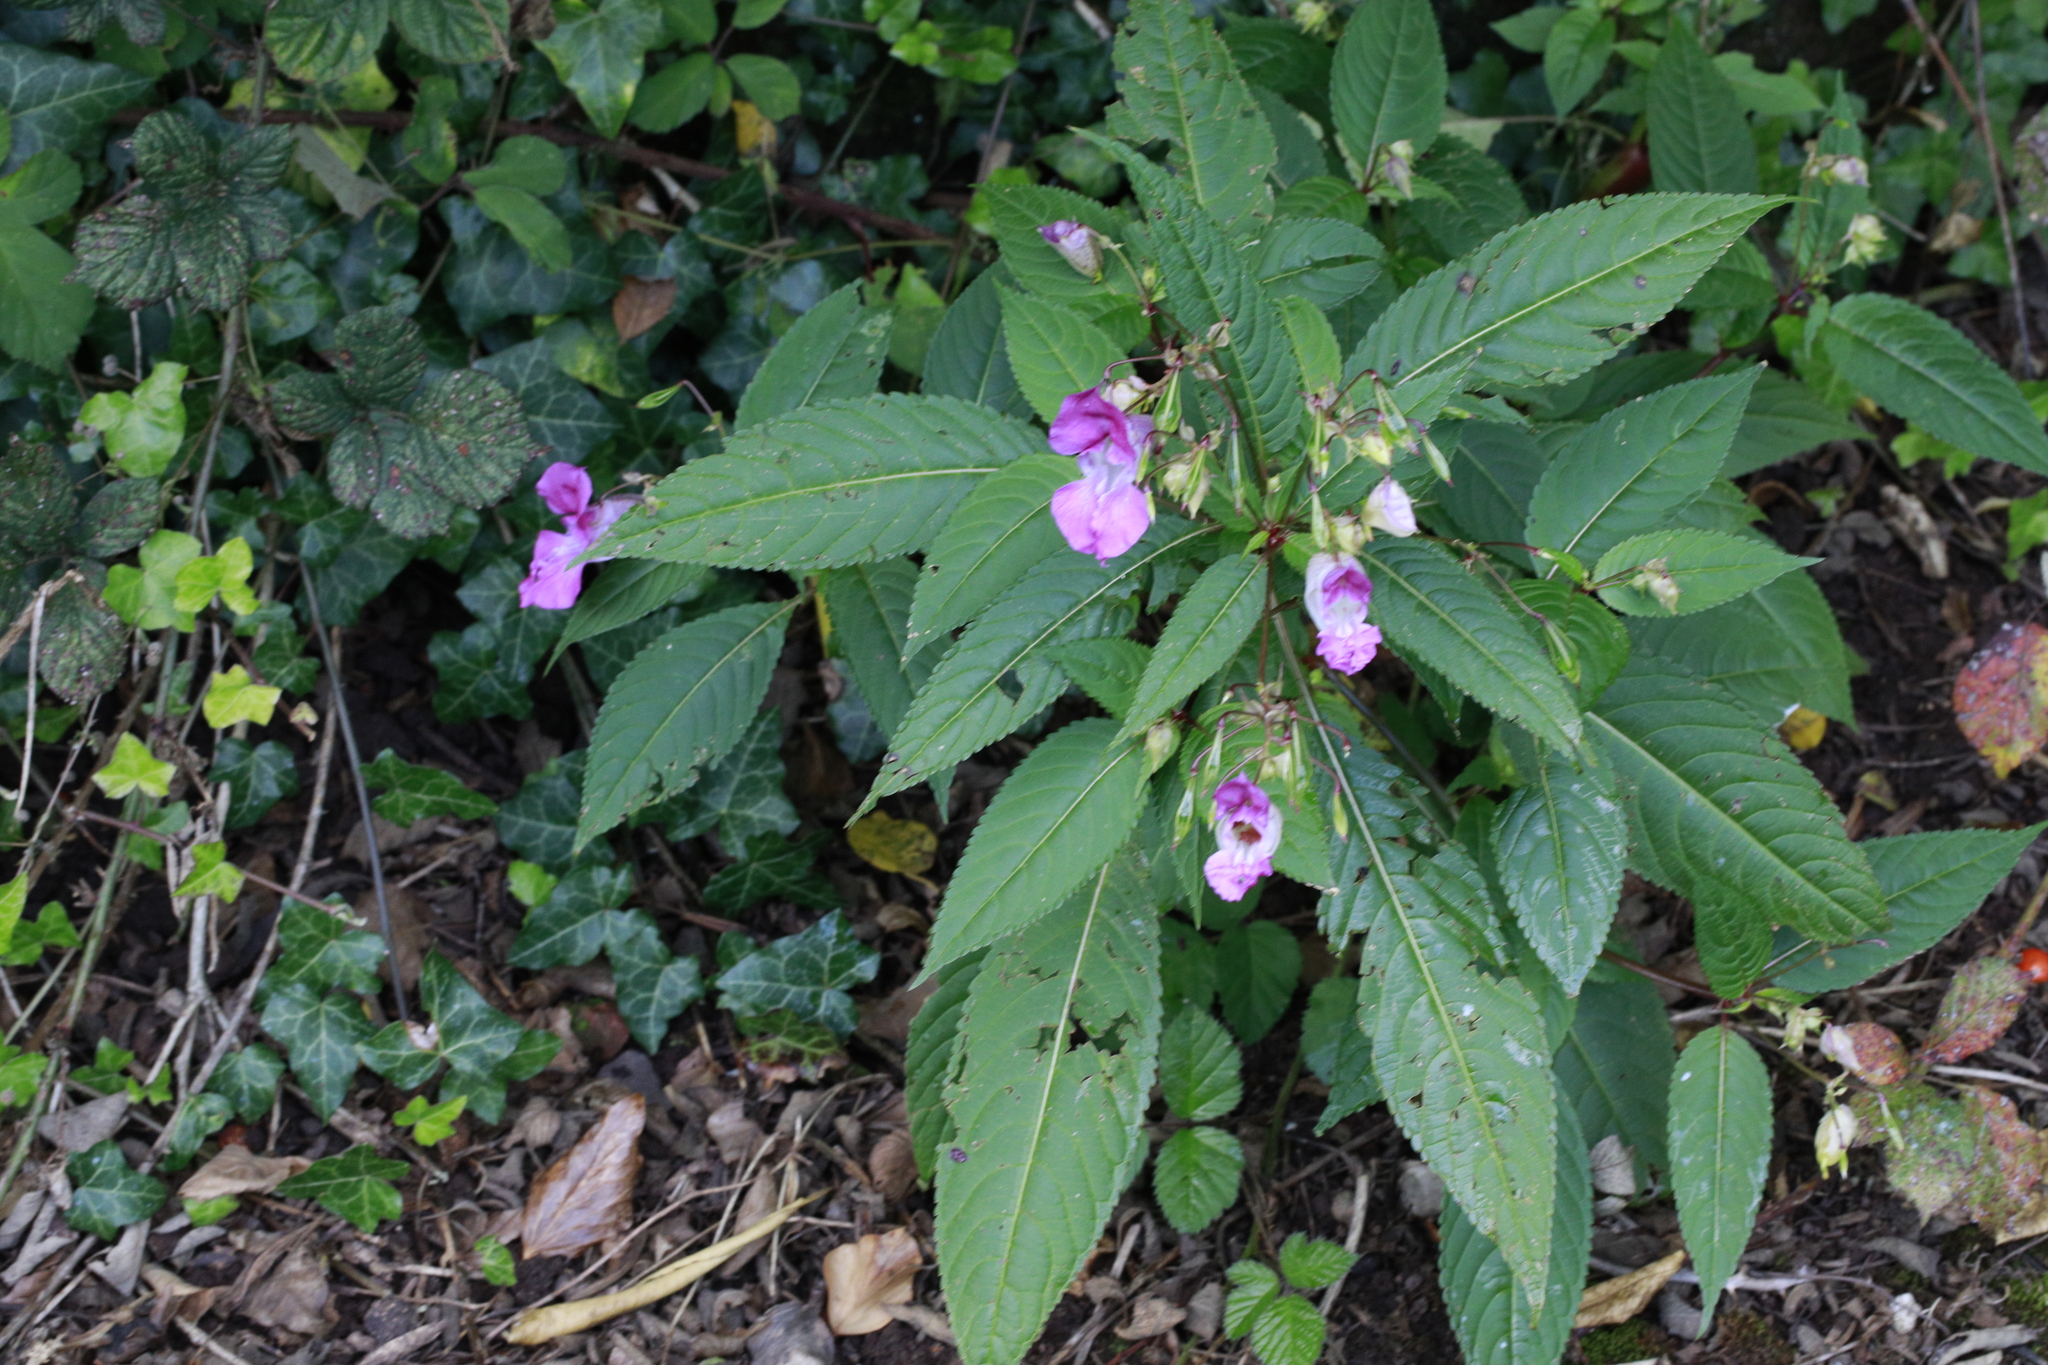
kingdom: Plantae
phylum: Tracheophyta
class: Magnoliopsida
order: Ericales
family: Balsaminaceae
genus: Impatiens
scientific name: Impatiens glandulifera
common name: Himalayan balsam
